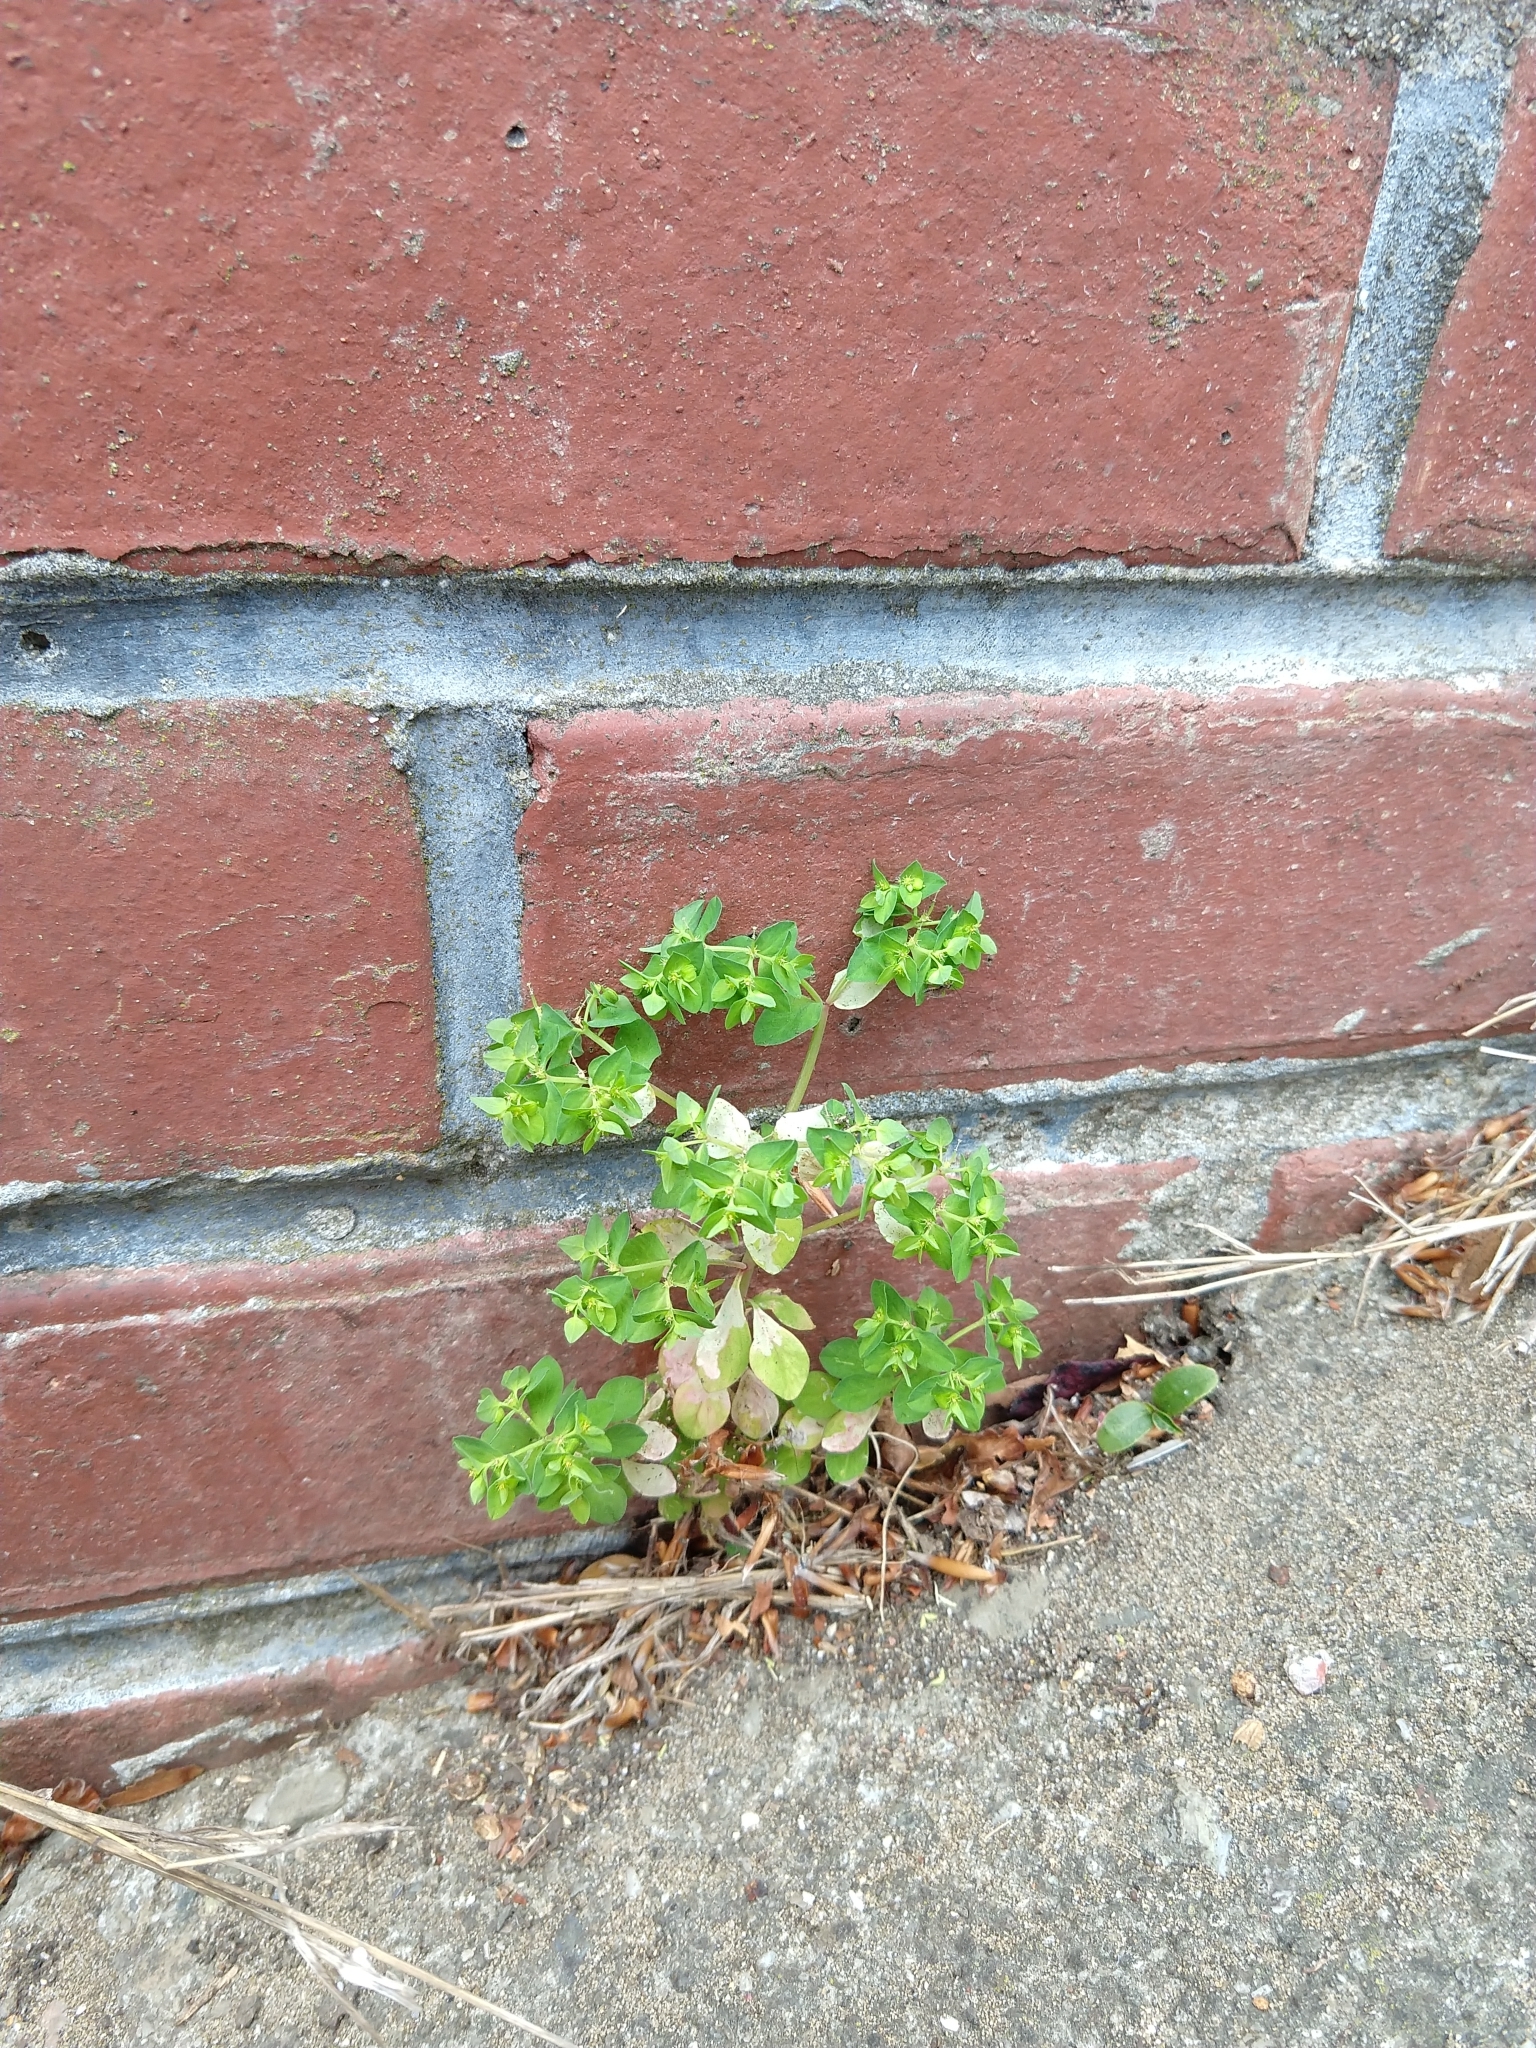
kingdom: Plantae
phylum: Tracheophyta
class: Magnoliopsida
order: Malpighiales
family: Euphorbiaceae
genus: Euphorbia
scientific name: Euphorbia peplus
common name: Petty spurge
